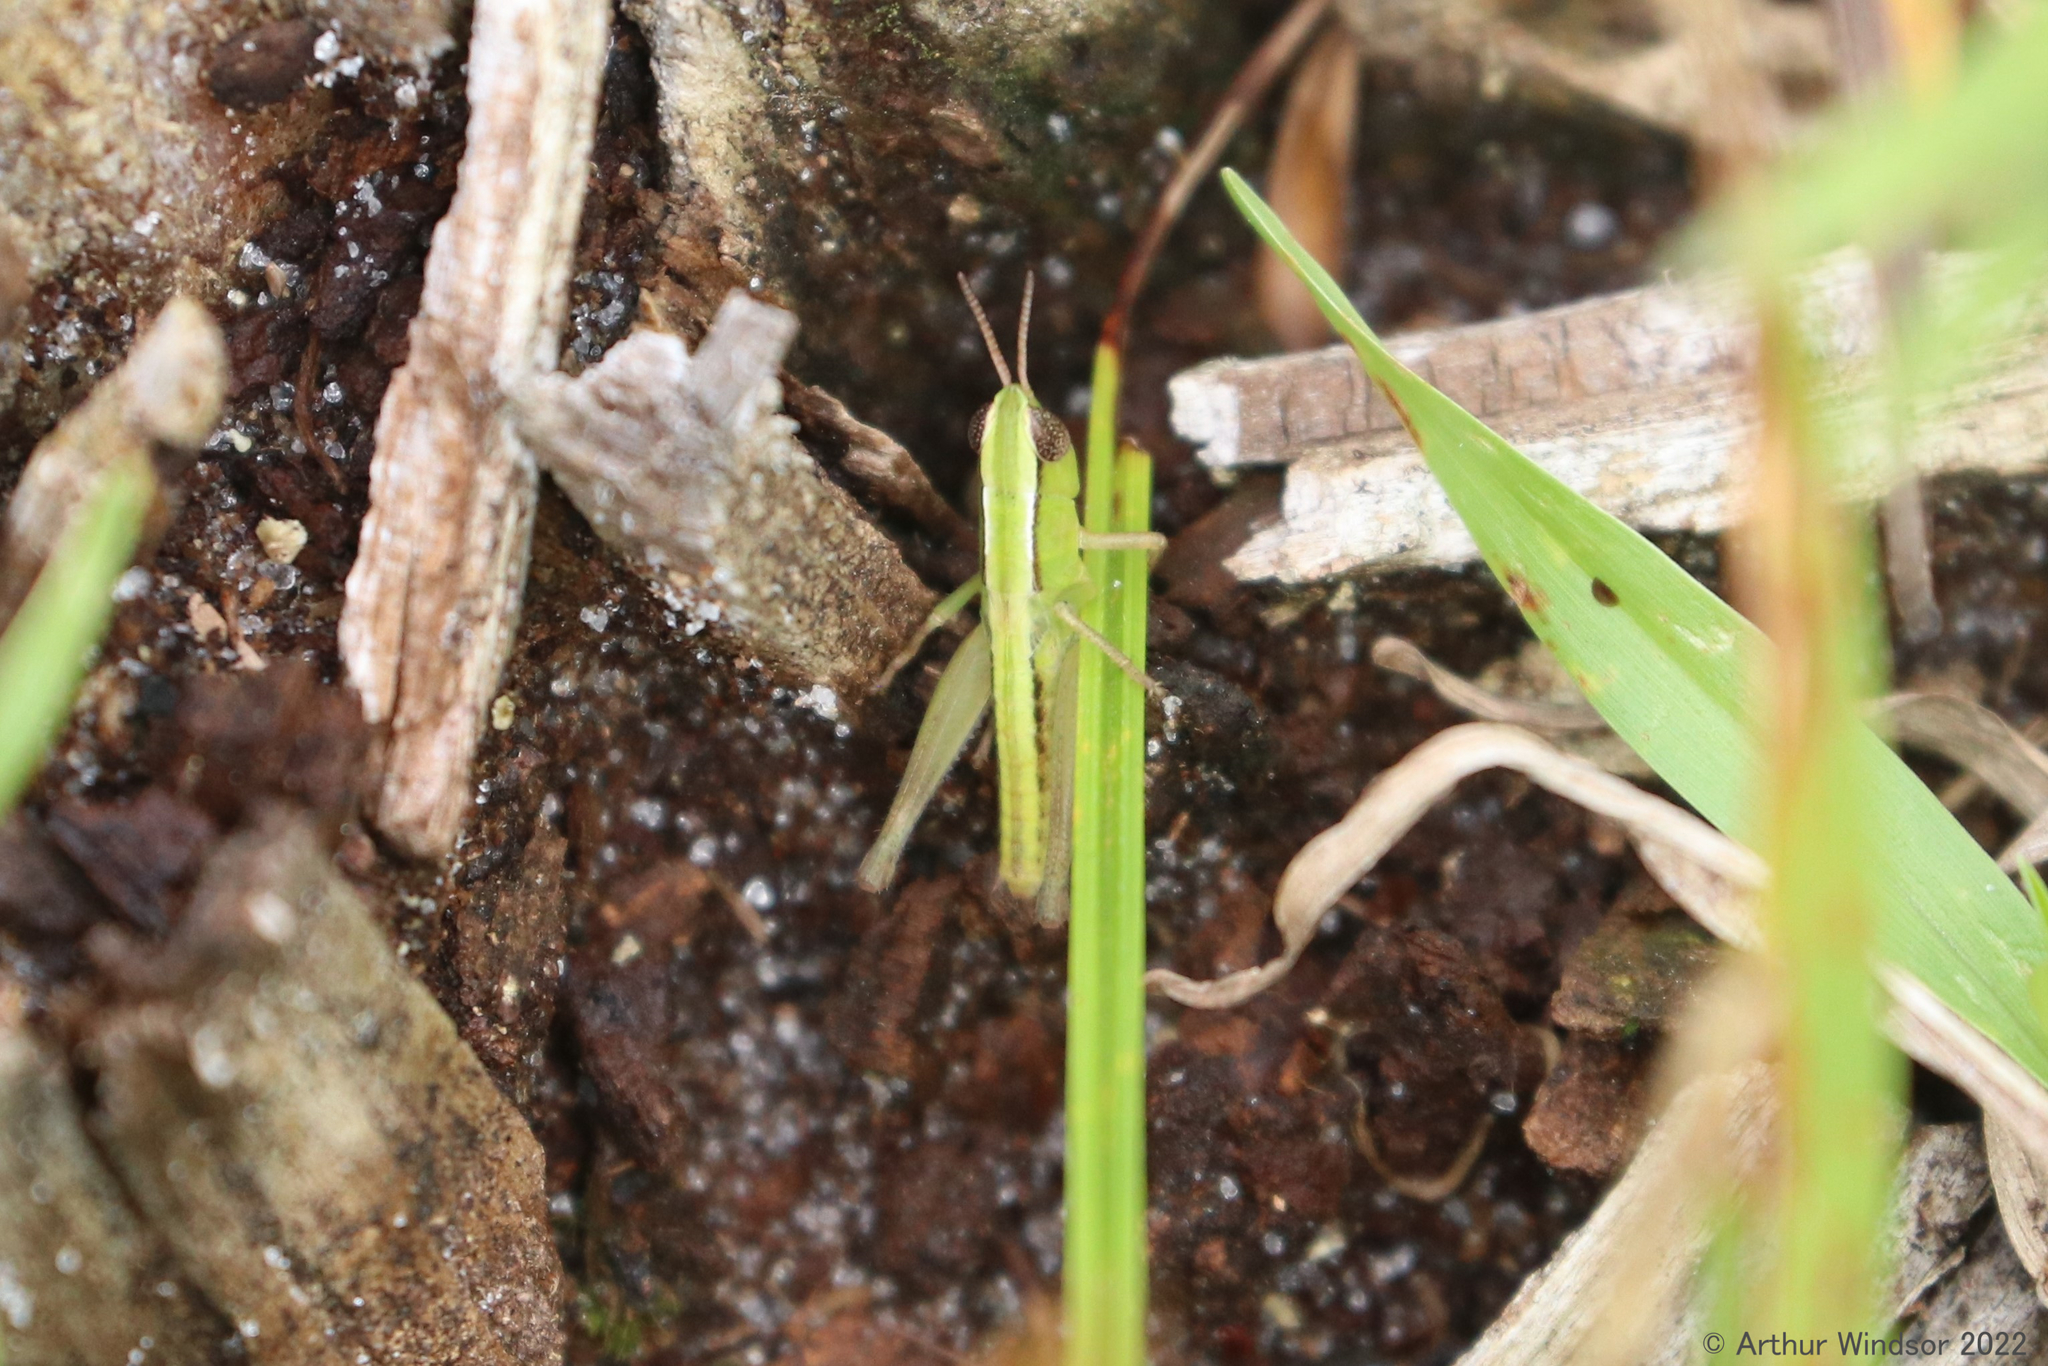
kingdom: Animalia
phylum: Arthropoda
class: Insecta
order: Orthoptera
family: Acrididae
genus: Dichromorpha
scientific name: Dichromorpha elegans
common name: Elegant grasshopper
